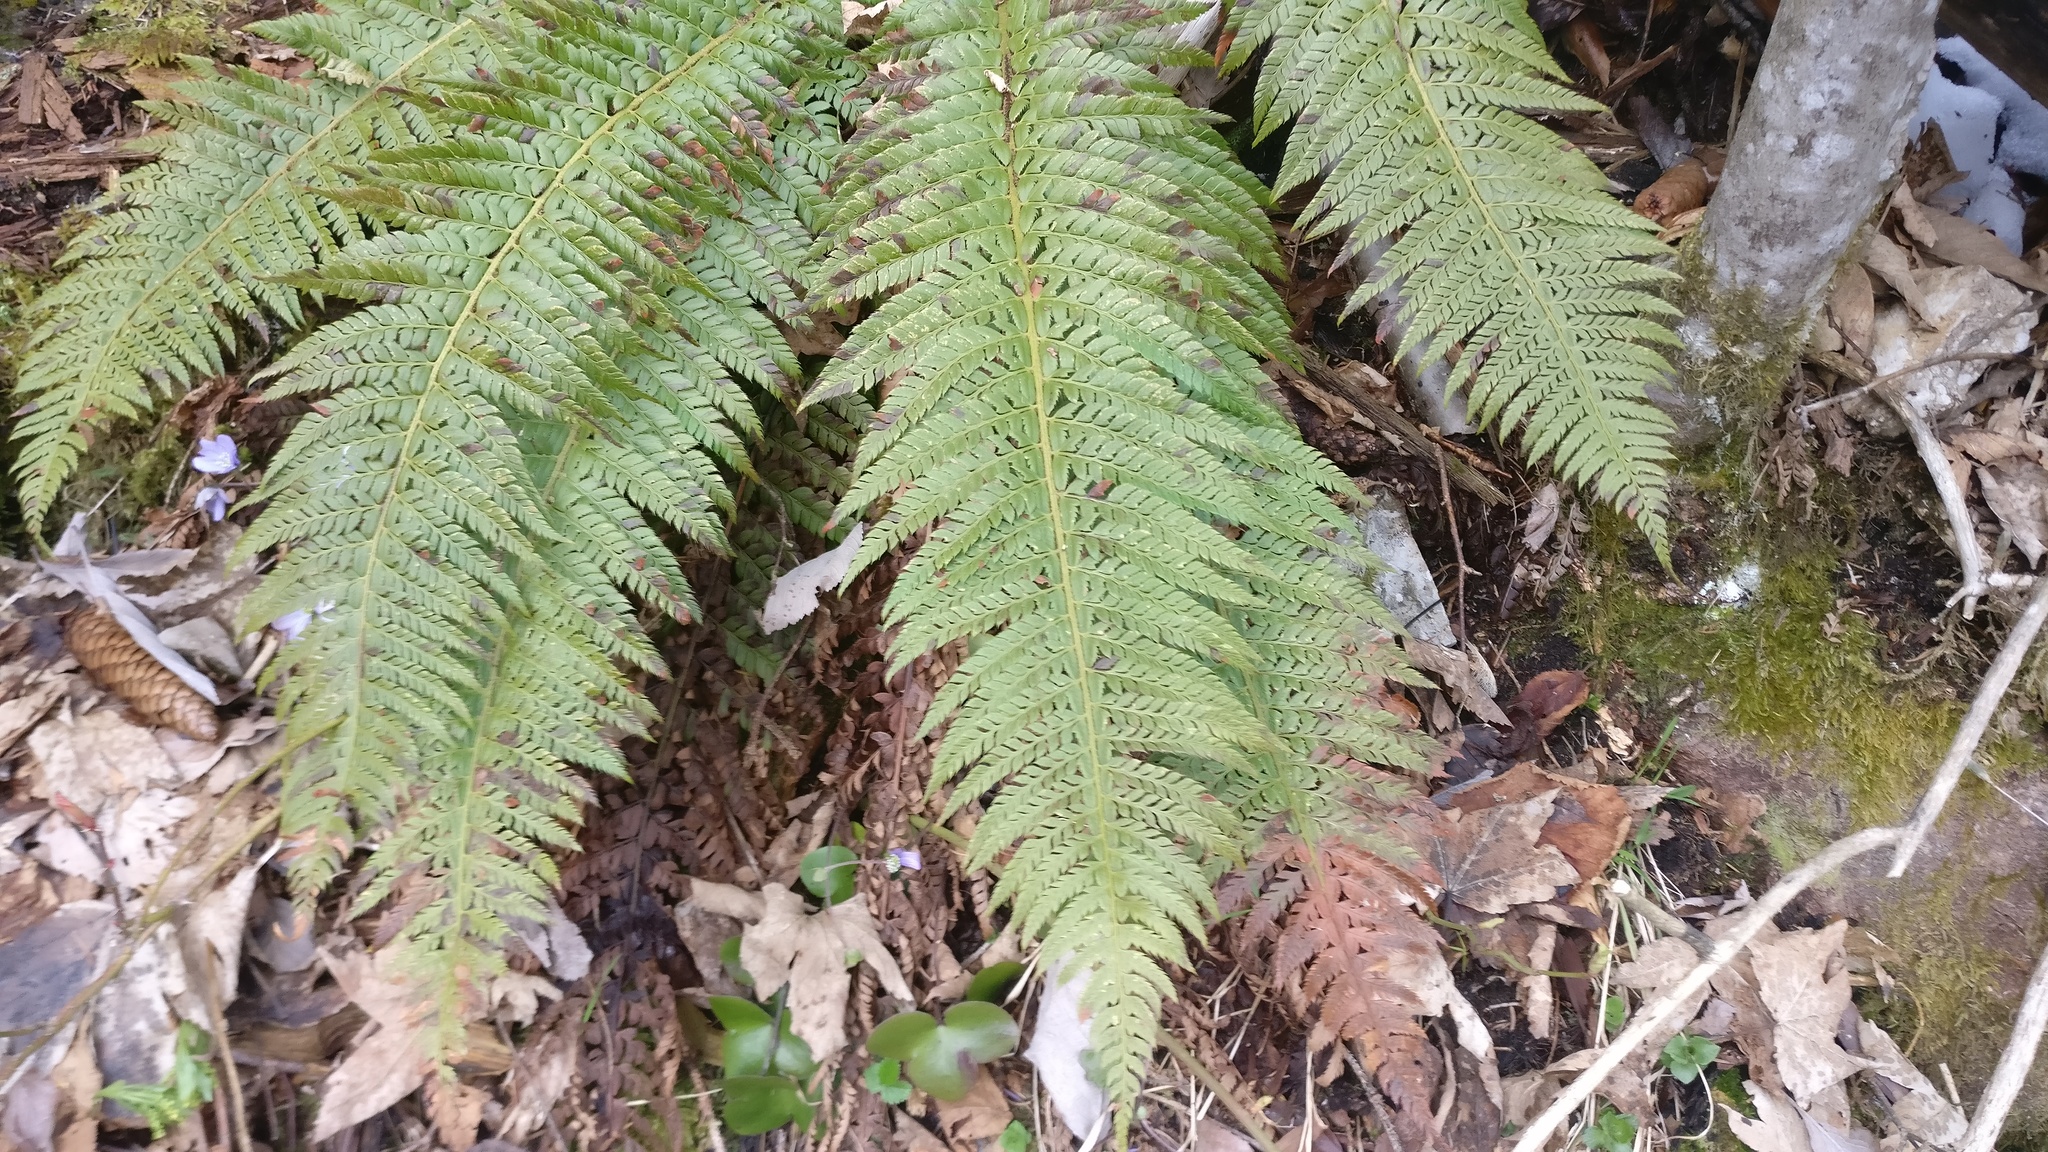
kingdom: Plantae
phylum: Tracheophyta
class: Polypodiopsida
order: Polypodiales
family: Dryopteridaceae
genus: Polystichum
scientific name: Polystichum aculeatum
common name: Hard shield-fern
